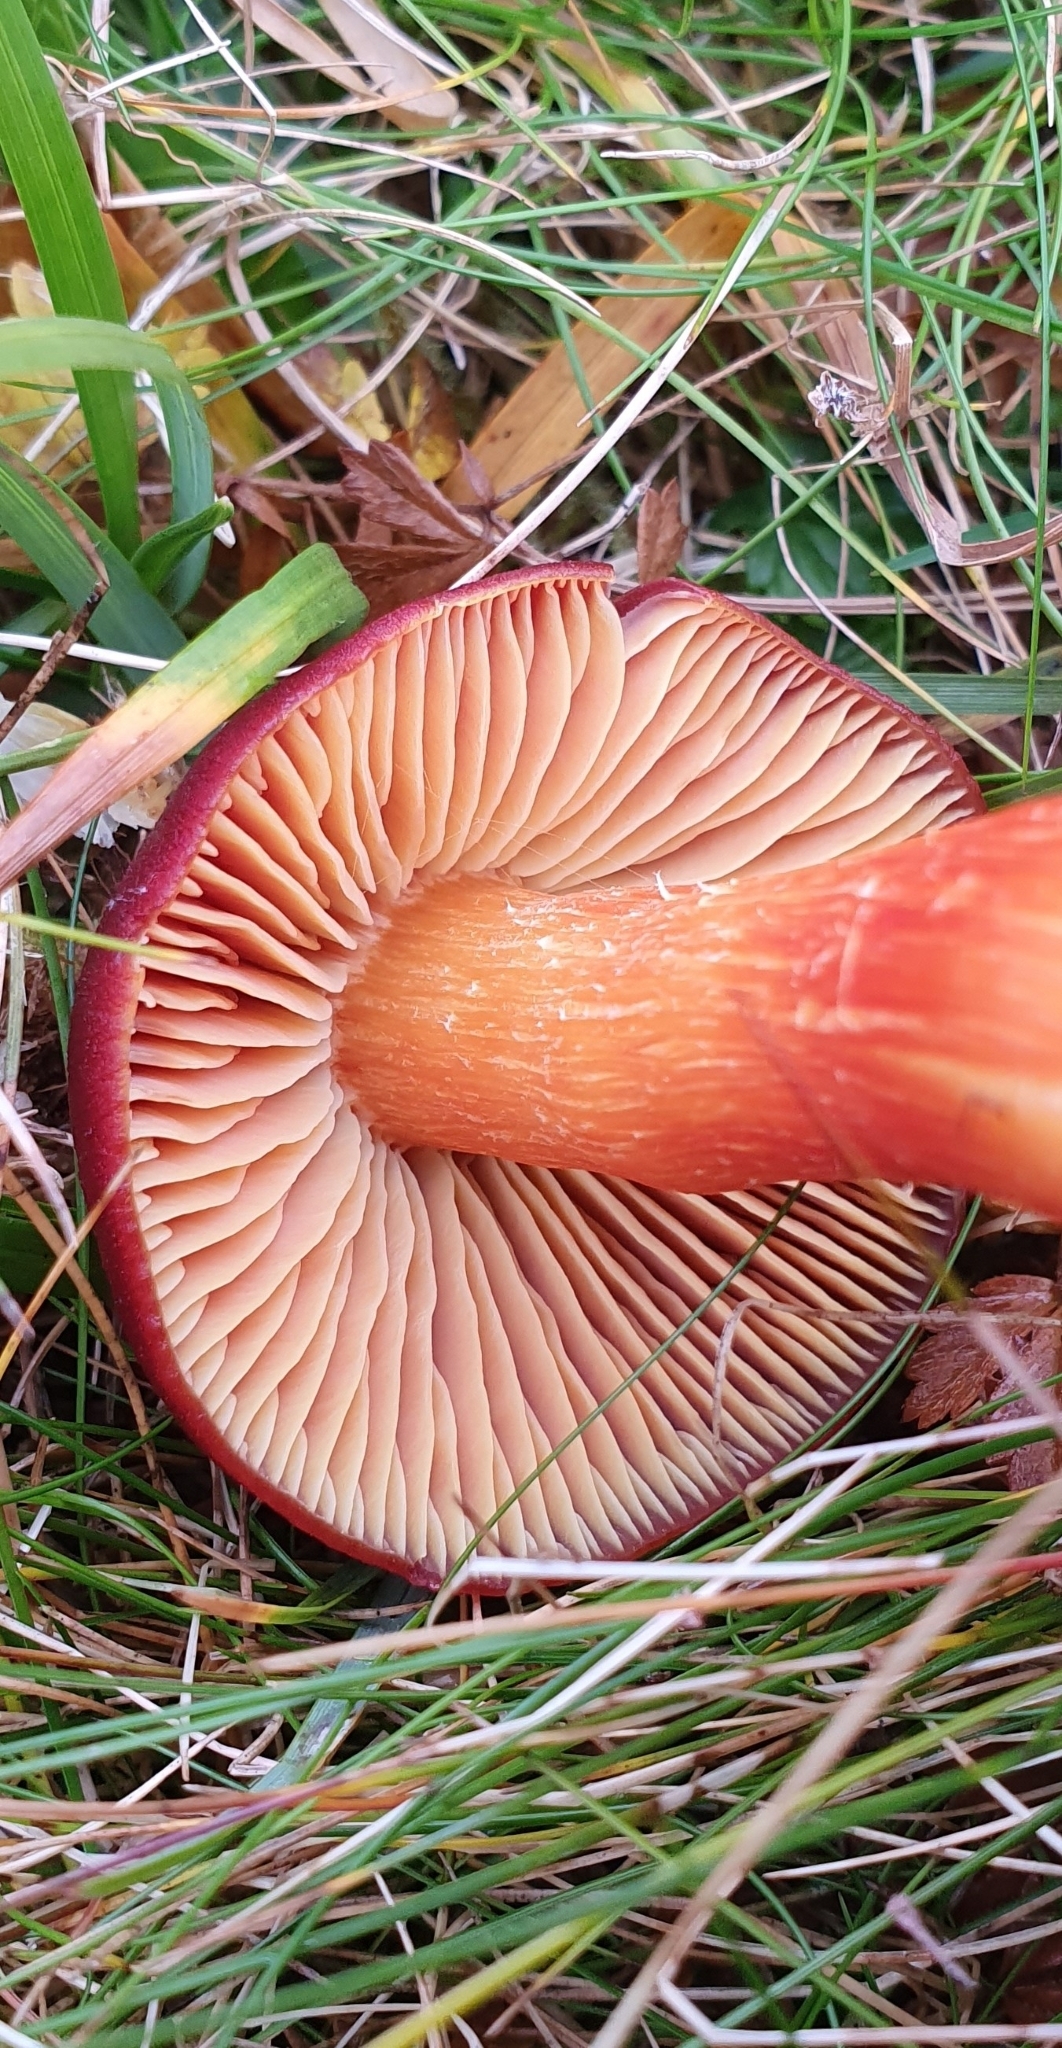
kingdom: Fungi
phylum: Basidiomycota
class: Agaricomycetes
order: Agaricales
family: Hygrophoraceae
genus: Hygrocybe
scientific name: Hygrocybe punicea
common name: Crimson waxcap
